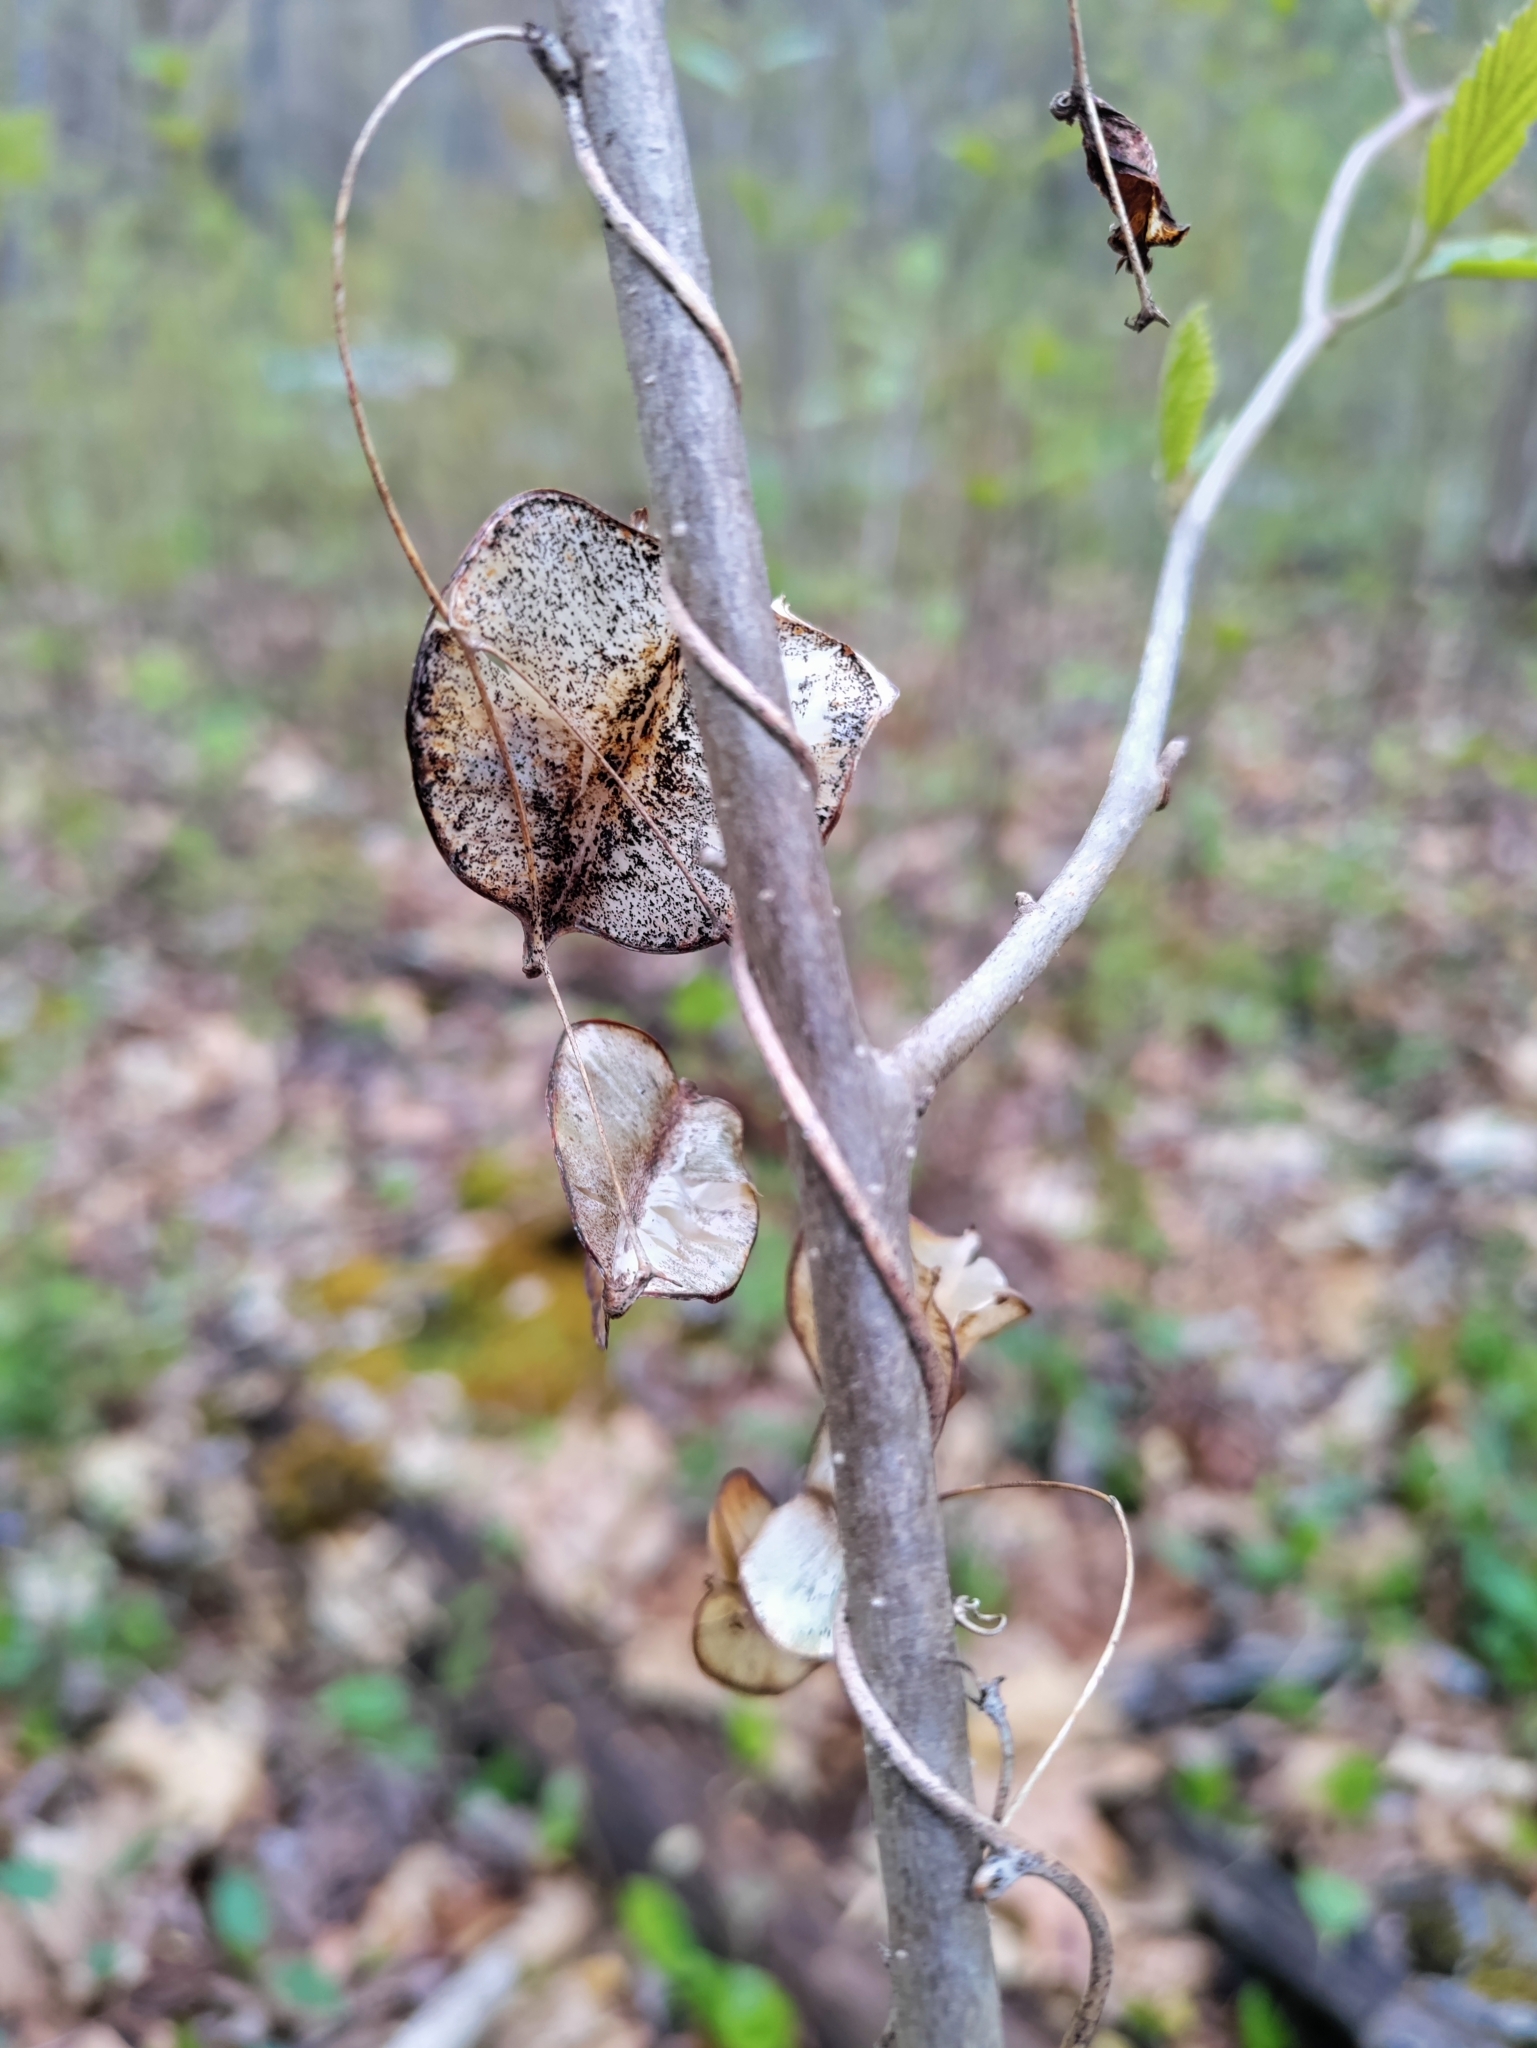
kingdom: Plantae
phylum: Tracheophyta
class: Liliopsida
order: Dioscoreales
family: Dioscoreaceae
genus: Dioscorea
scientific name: Dioscorea villosa
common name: Wild yam
